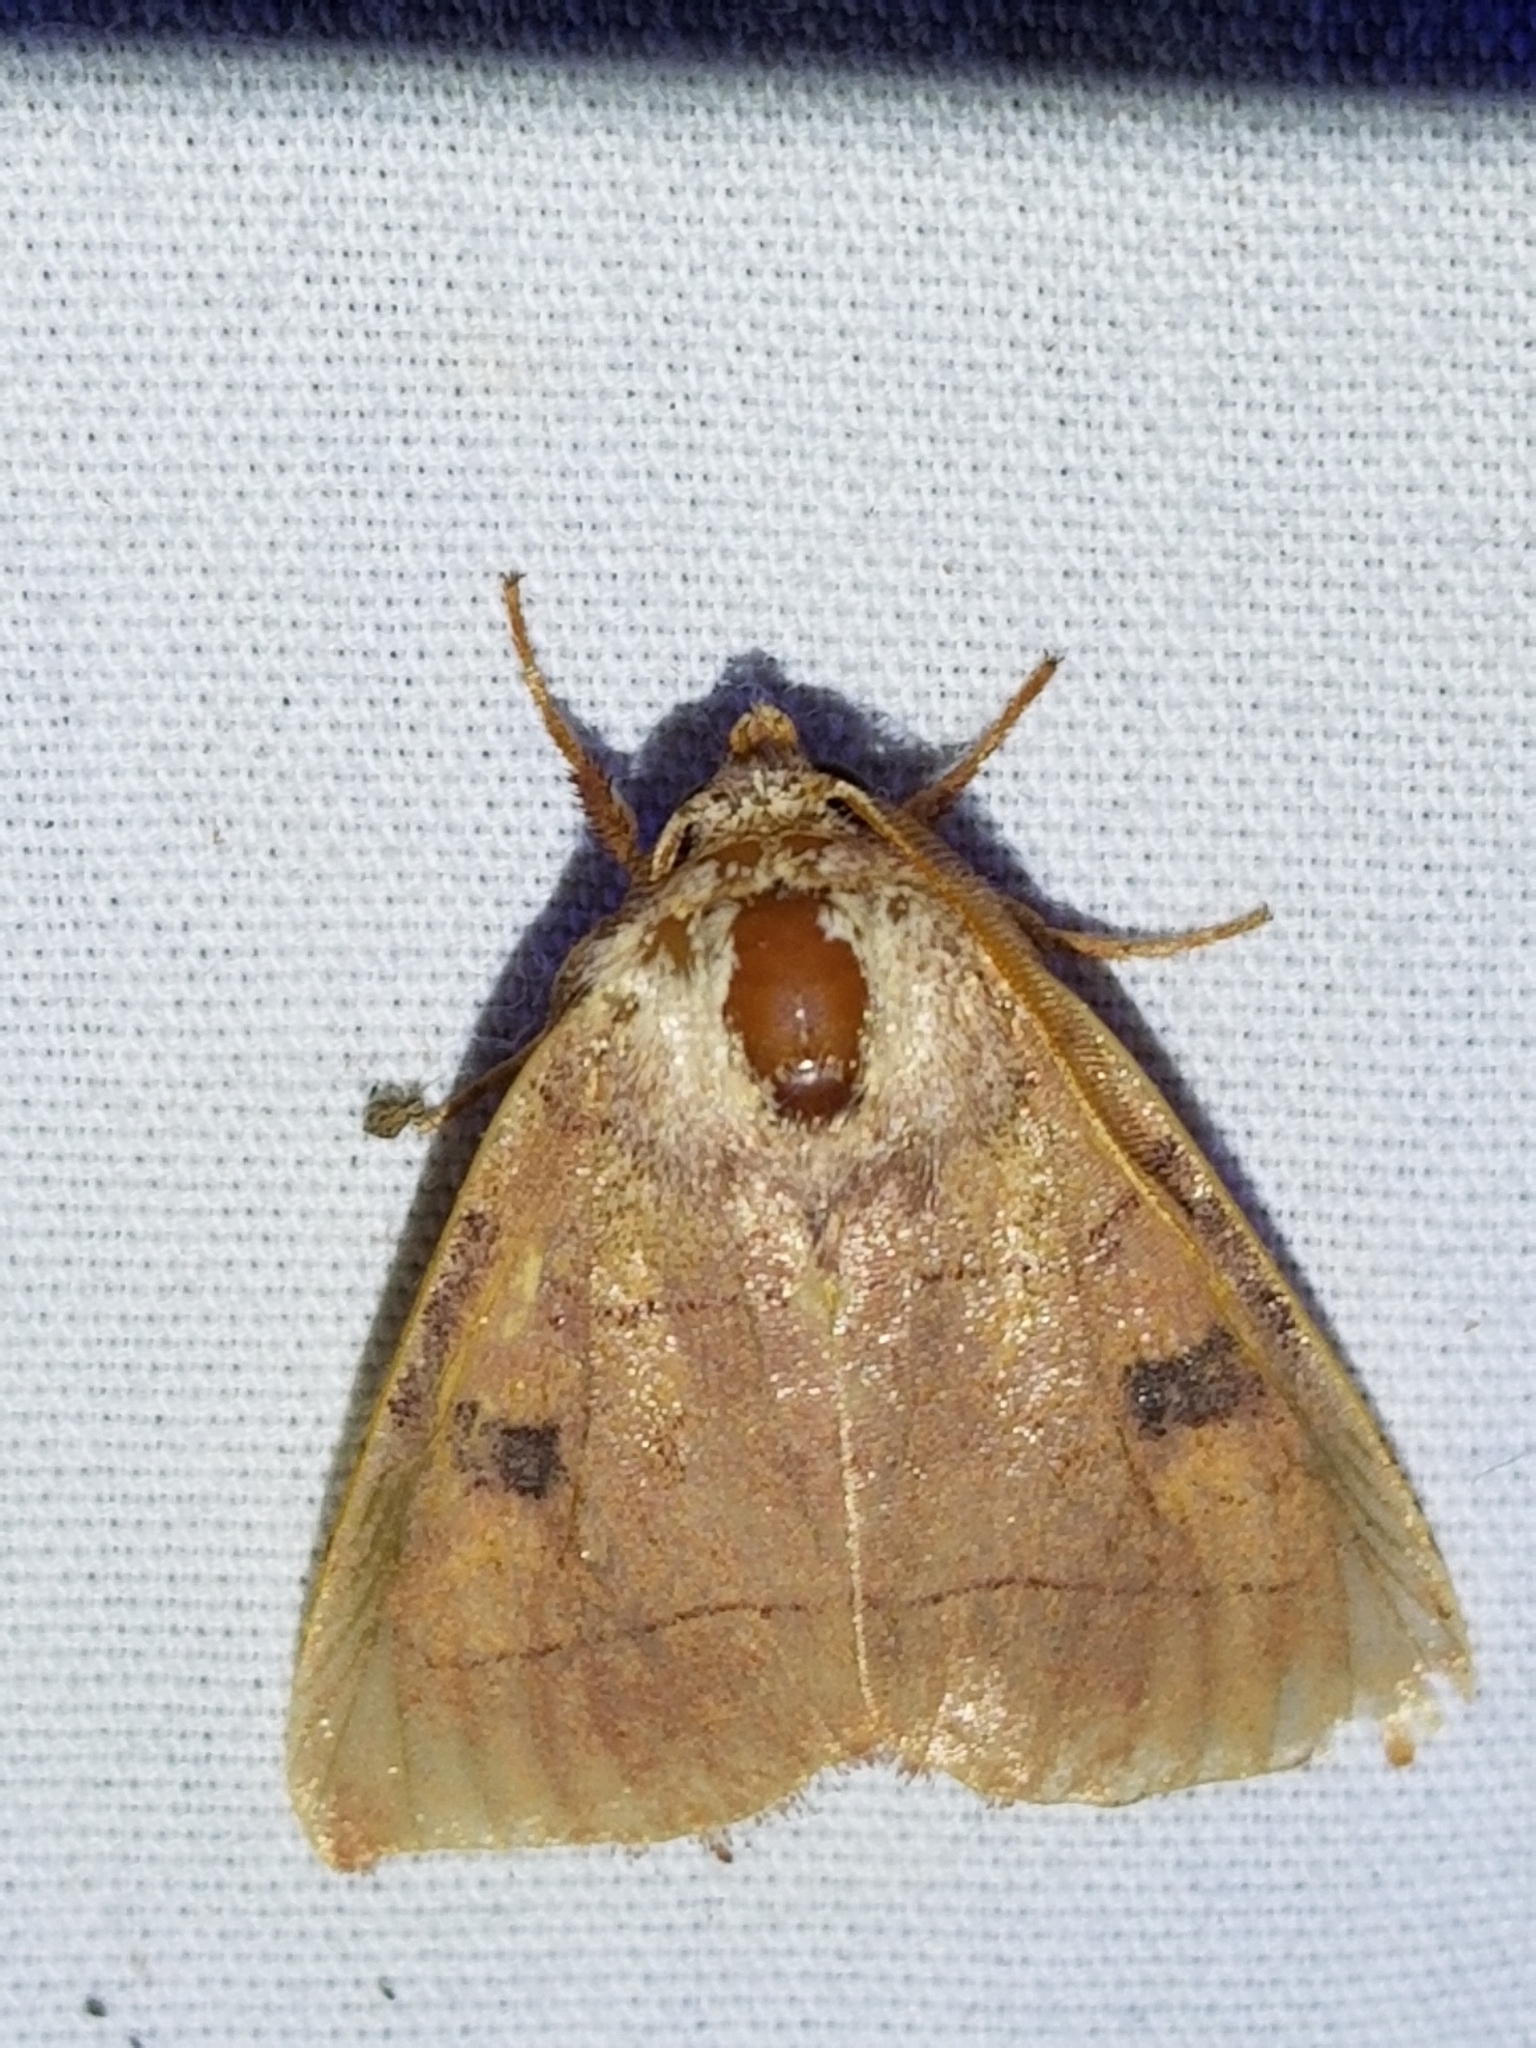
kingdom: Animalia
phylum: Arthropoda
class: Insecta
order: Lepidoptera
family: Noctuidae
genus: Choephora
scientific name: Choephora fungorum
